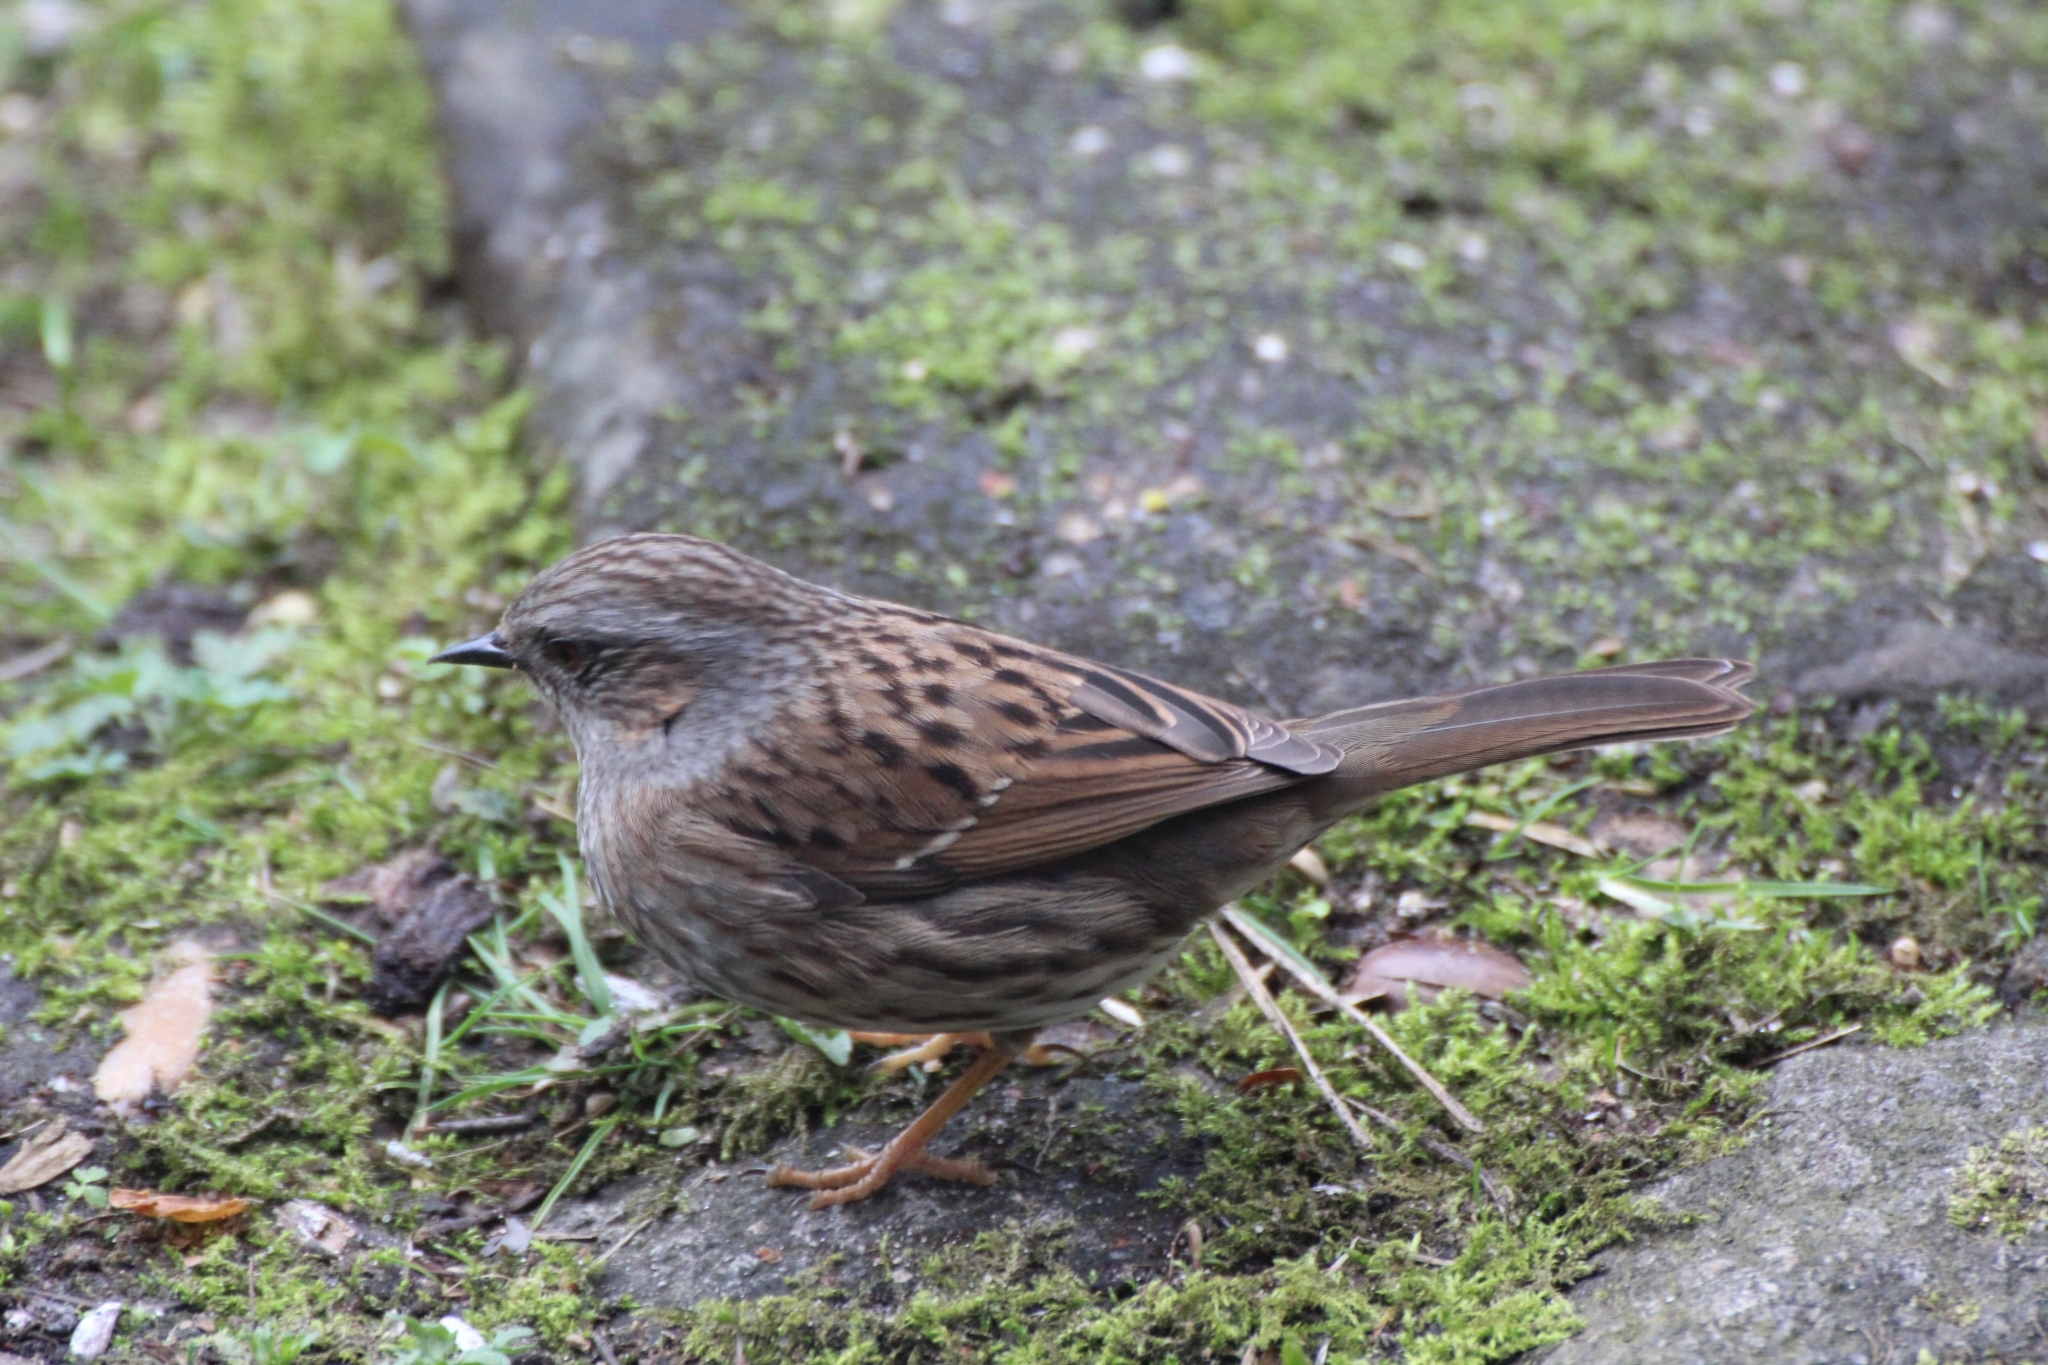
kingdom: Animalia
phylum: Chordata
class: Aves
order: Passeriformes
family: Prunellidae
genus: Prunella
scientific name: Prunella modularis
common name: Dunnock
